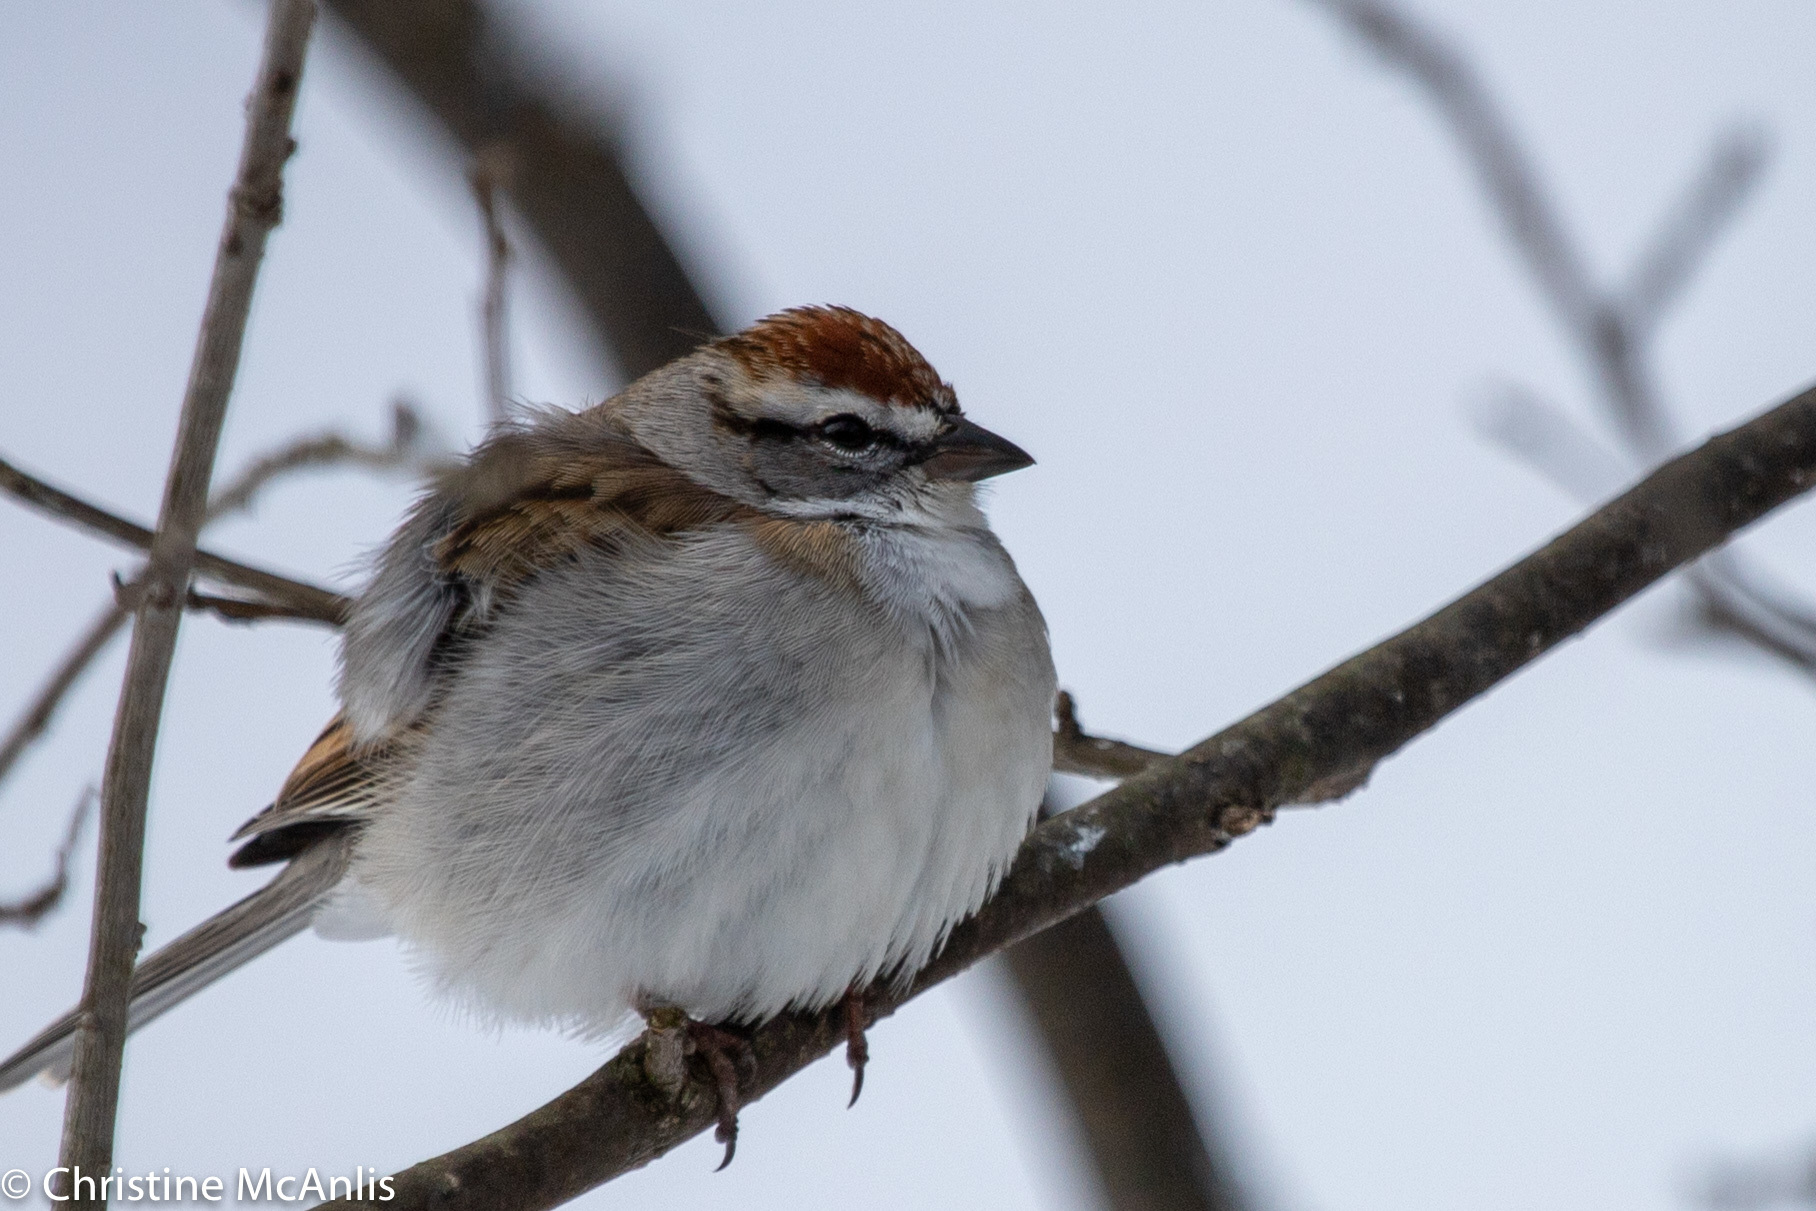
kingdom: Animalia
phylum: Chordata
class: Aves
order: Passeriformes
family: Passerellidae
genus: Spizella
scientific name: Spizella passerina
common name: Chipping sparrow
